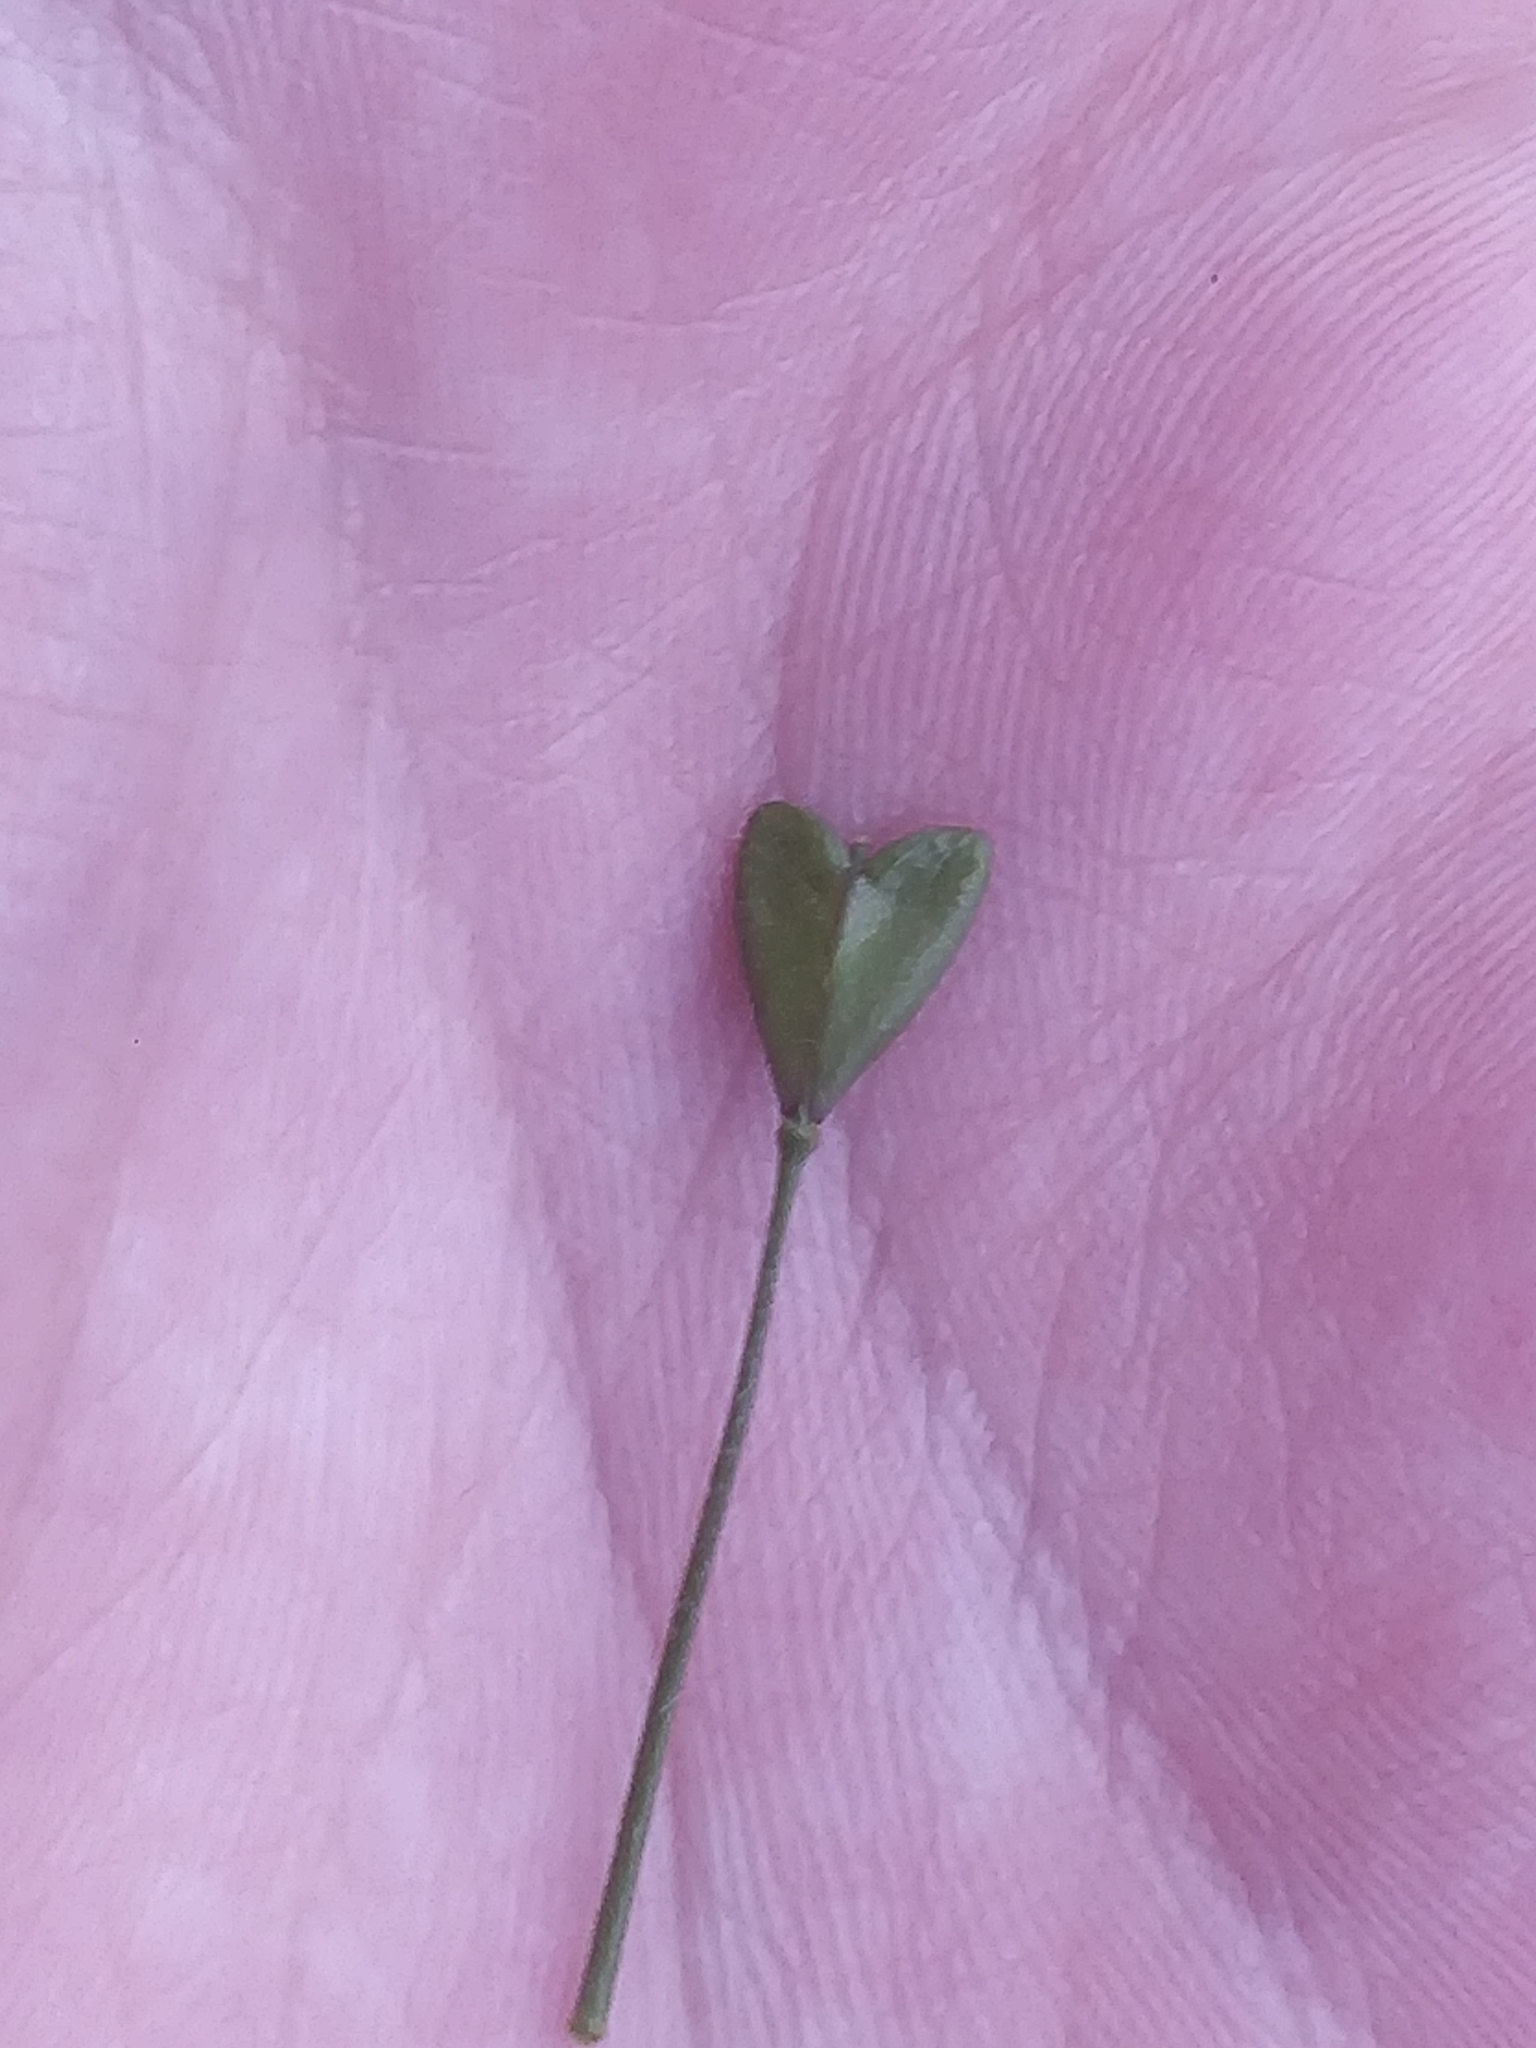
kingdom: Plantae
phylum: Tracheophyta
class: Magnoliopsida
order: Brassicales
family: Brassicaceae
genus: Capsella
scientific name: Capsella bursa-pastoris
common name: Shepherd's purse
